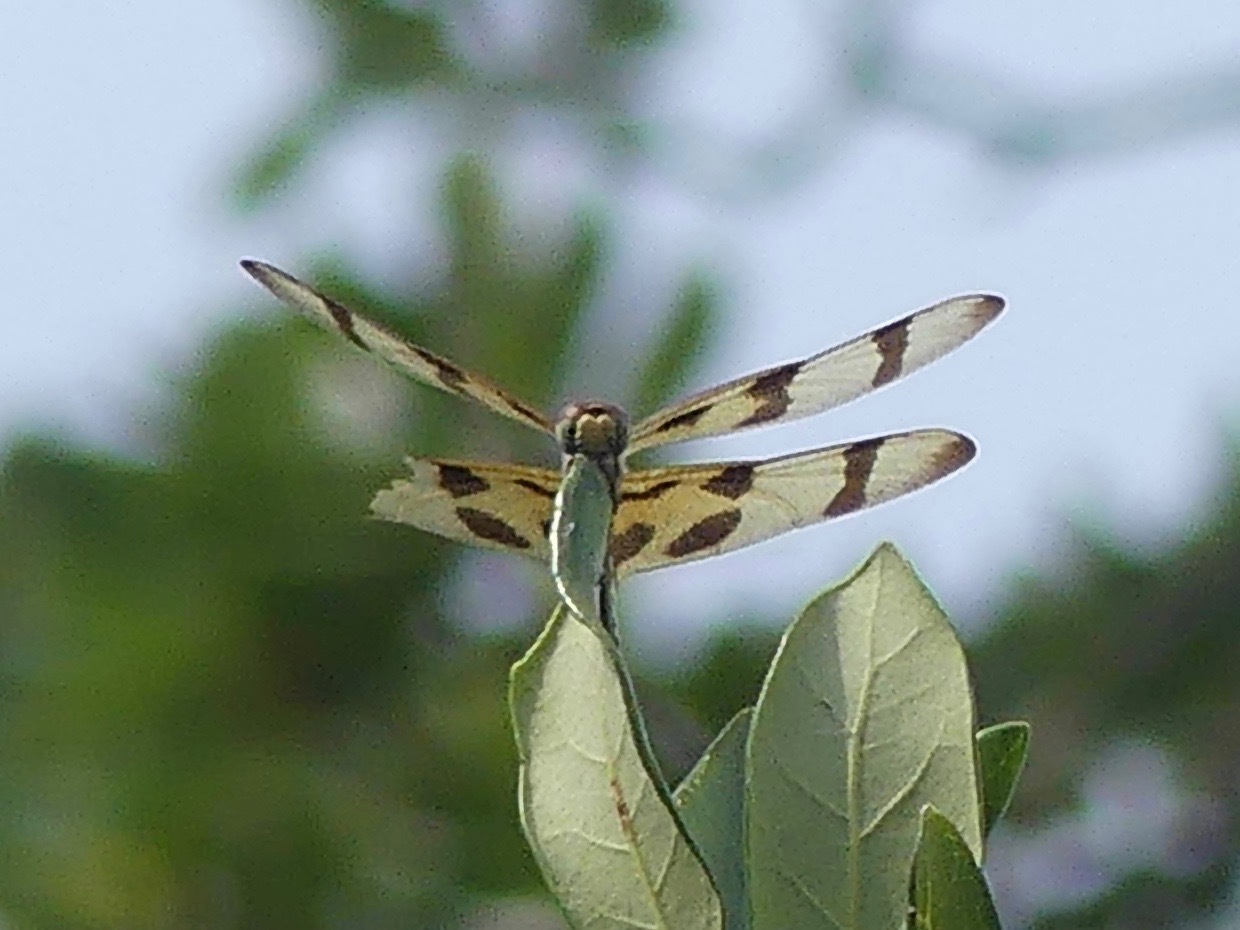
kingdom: Animalia
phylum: Arthropoda
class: Insecta
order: Odonata
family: Libellulidae
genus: Celithemis
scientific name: Celithemis eponina
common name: Halloween pennant
